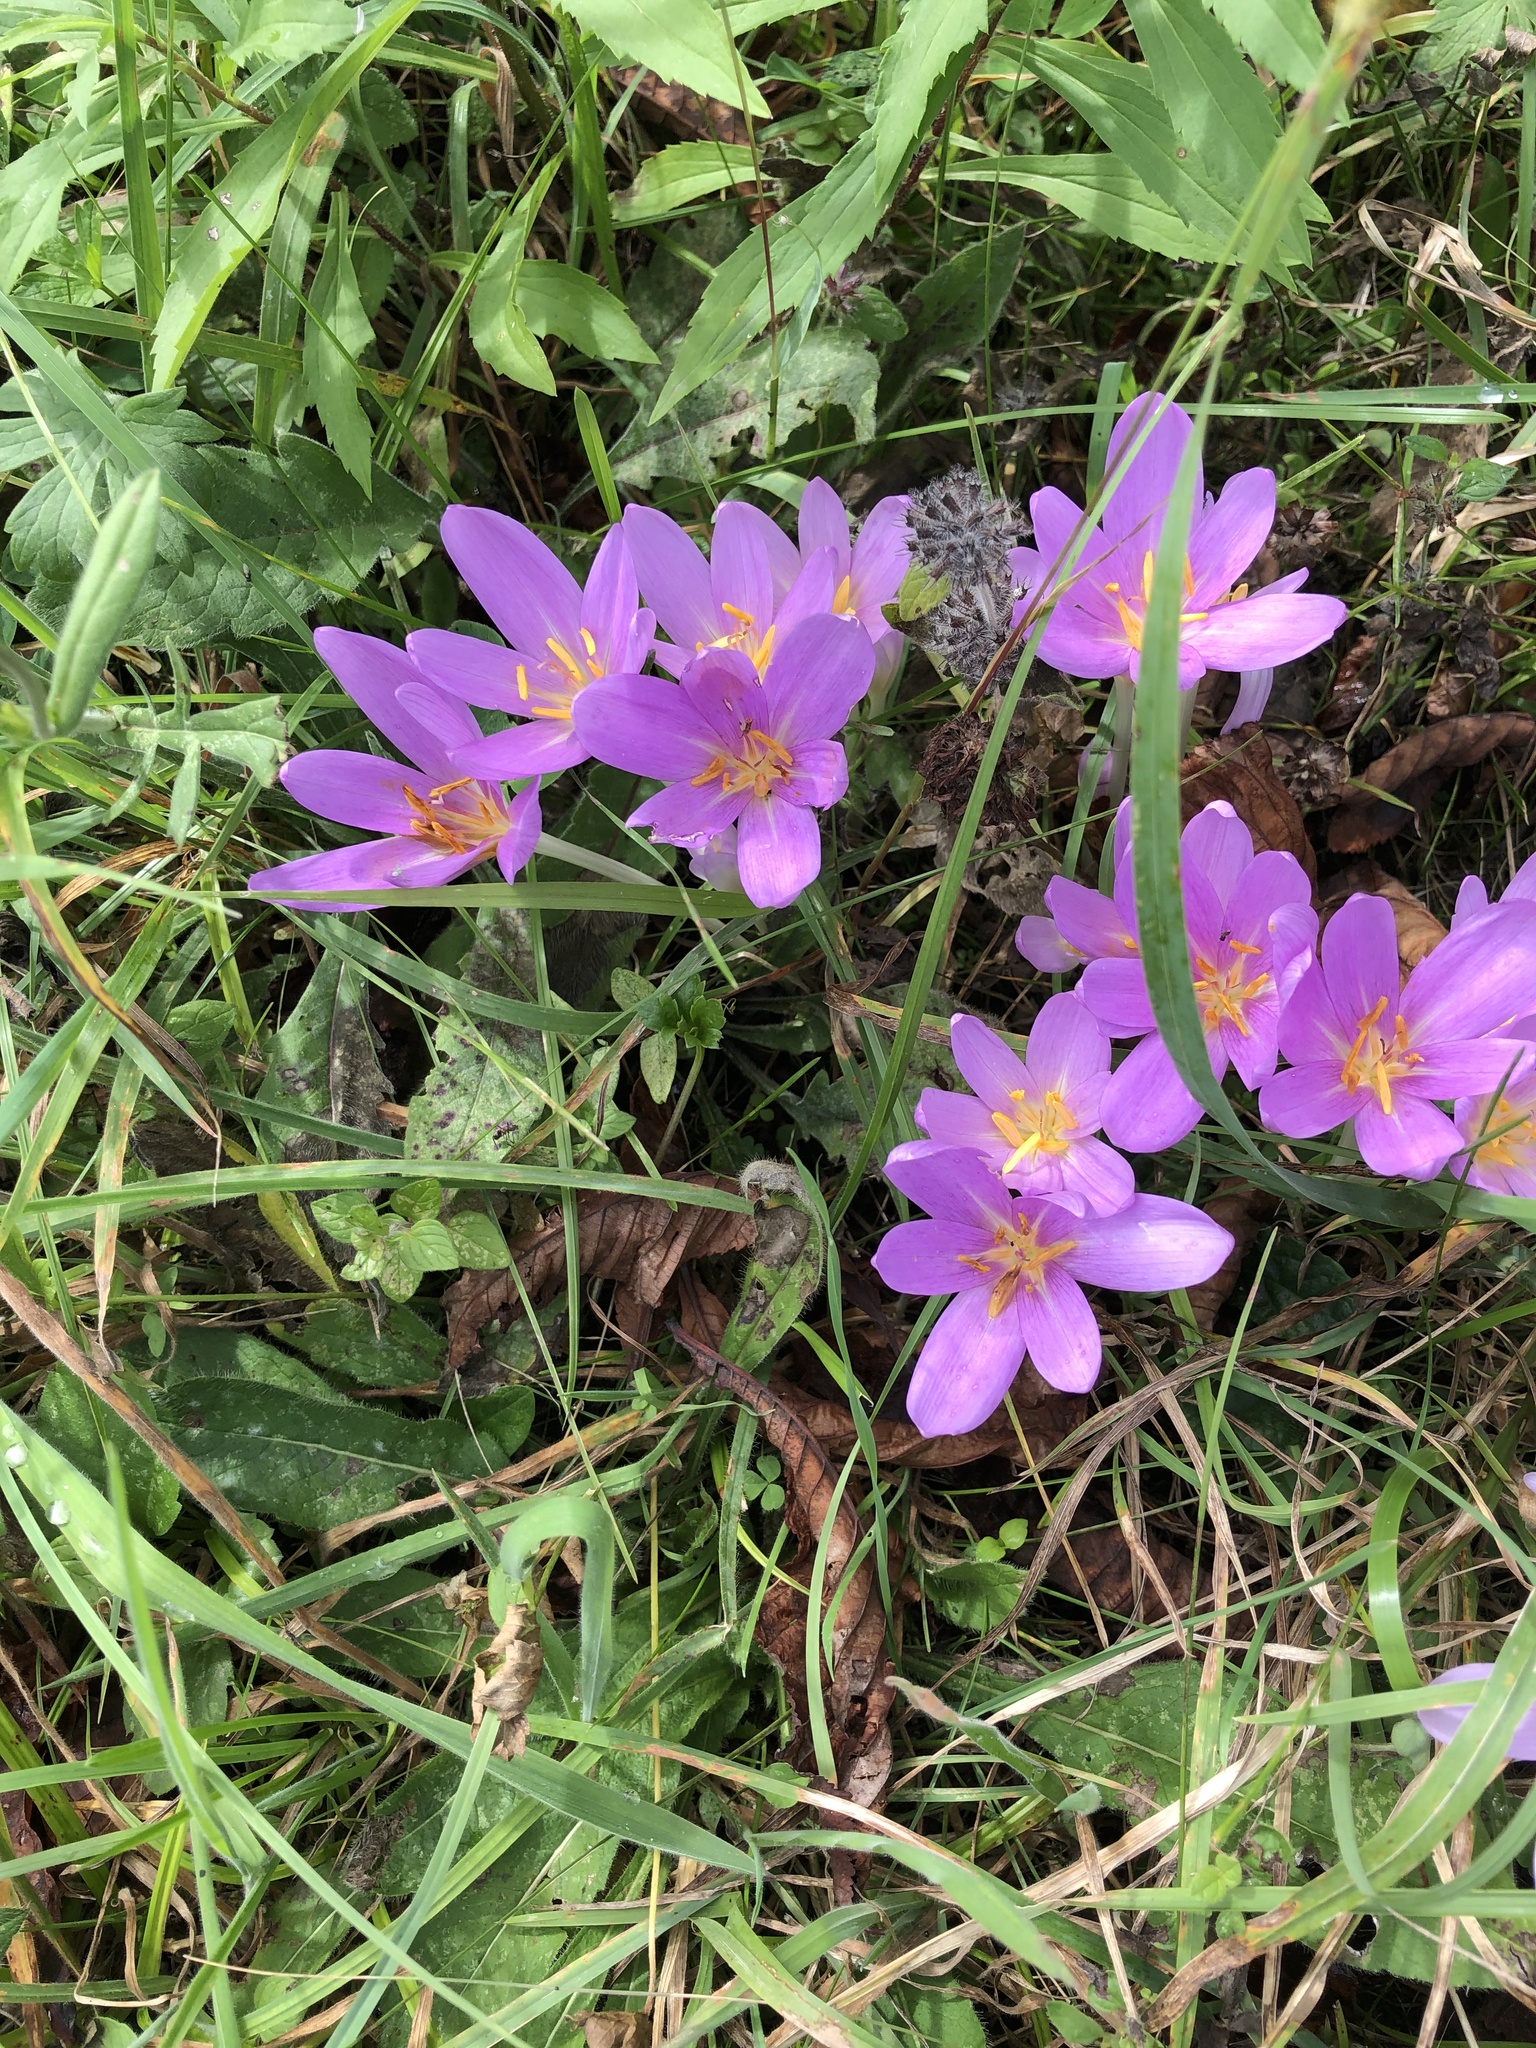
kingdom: Plantae
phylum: Tracheophyta
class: Liliopsida
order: Liliales
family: Colchicaceae
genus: Colchicum
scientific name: Colchicum autumnale
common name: Autumn crocus
